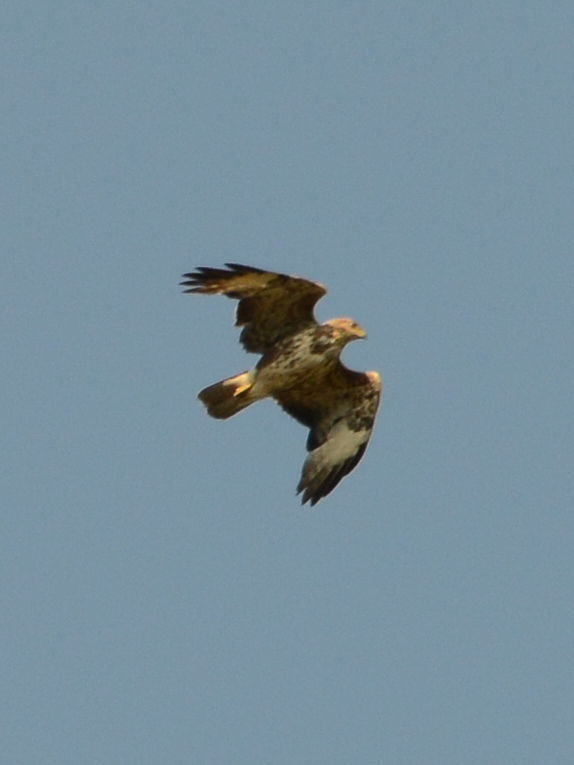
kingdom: Animalia
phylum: Chordata
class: Aves
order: Accipitriformes
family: Accipitridae
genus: Buteo
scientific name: Buteo buteo
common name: Common buzzard
